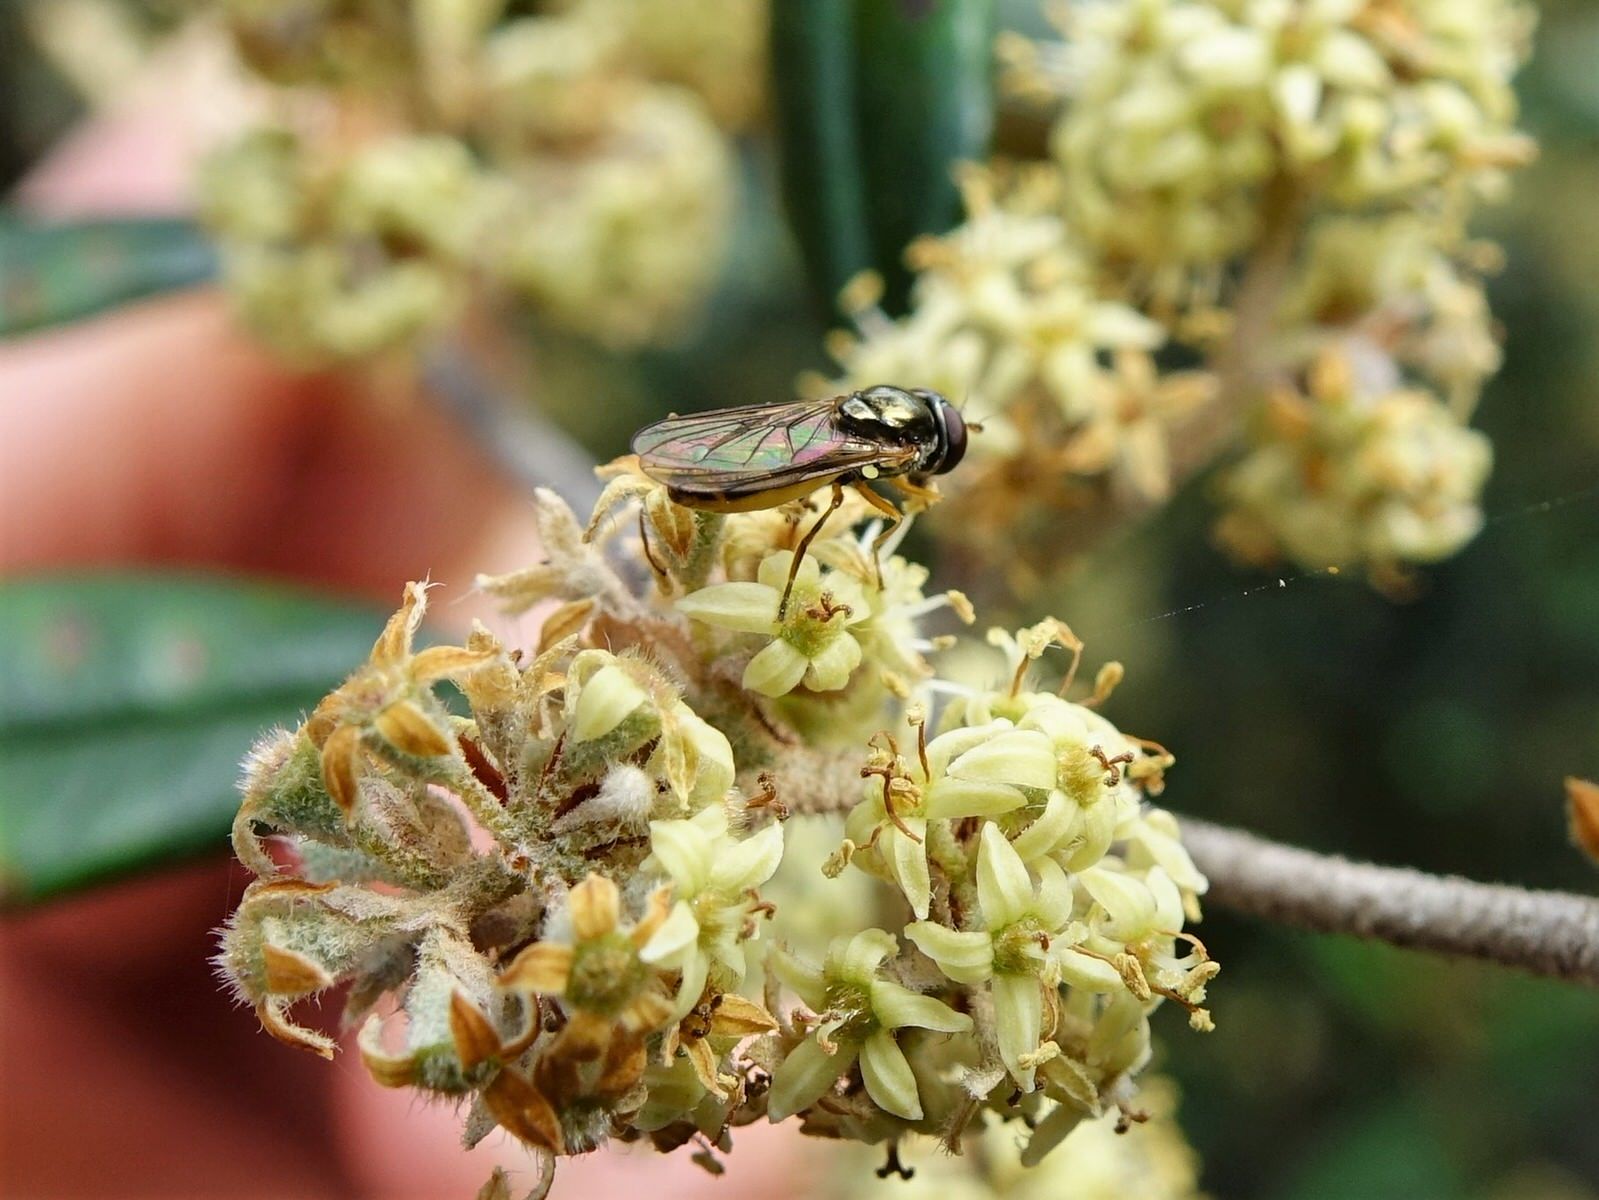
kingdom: Animalia
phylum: Arthropoda
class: Insecta
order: Diptera
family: Syrphidae
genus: Melanostoma
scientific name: Melanostoma fasciatum
